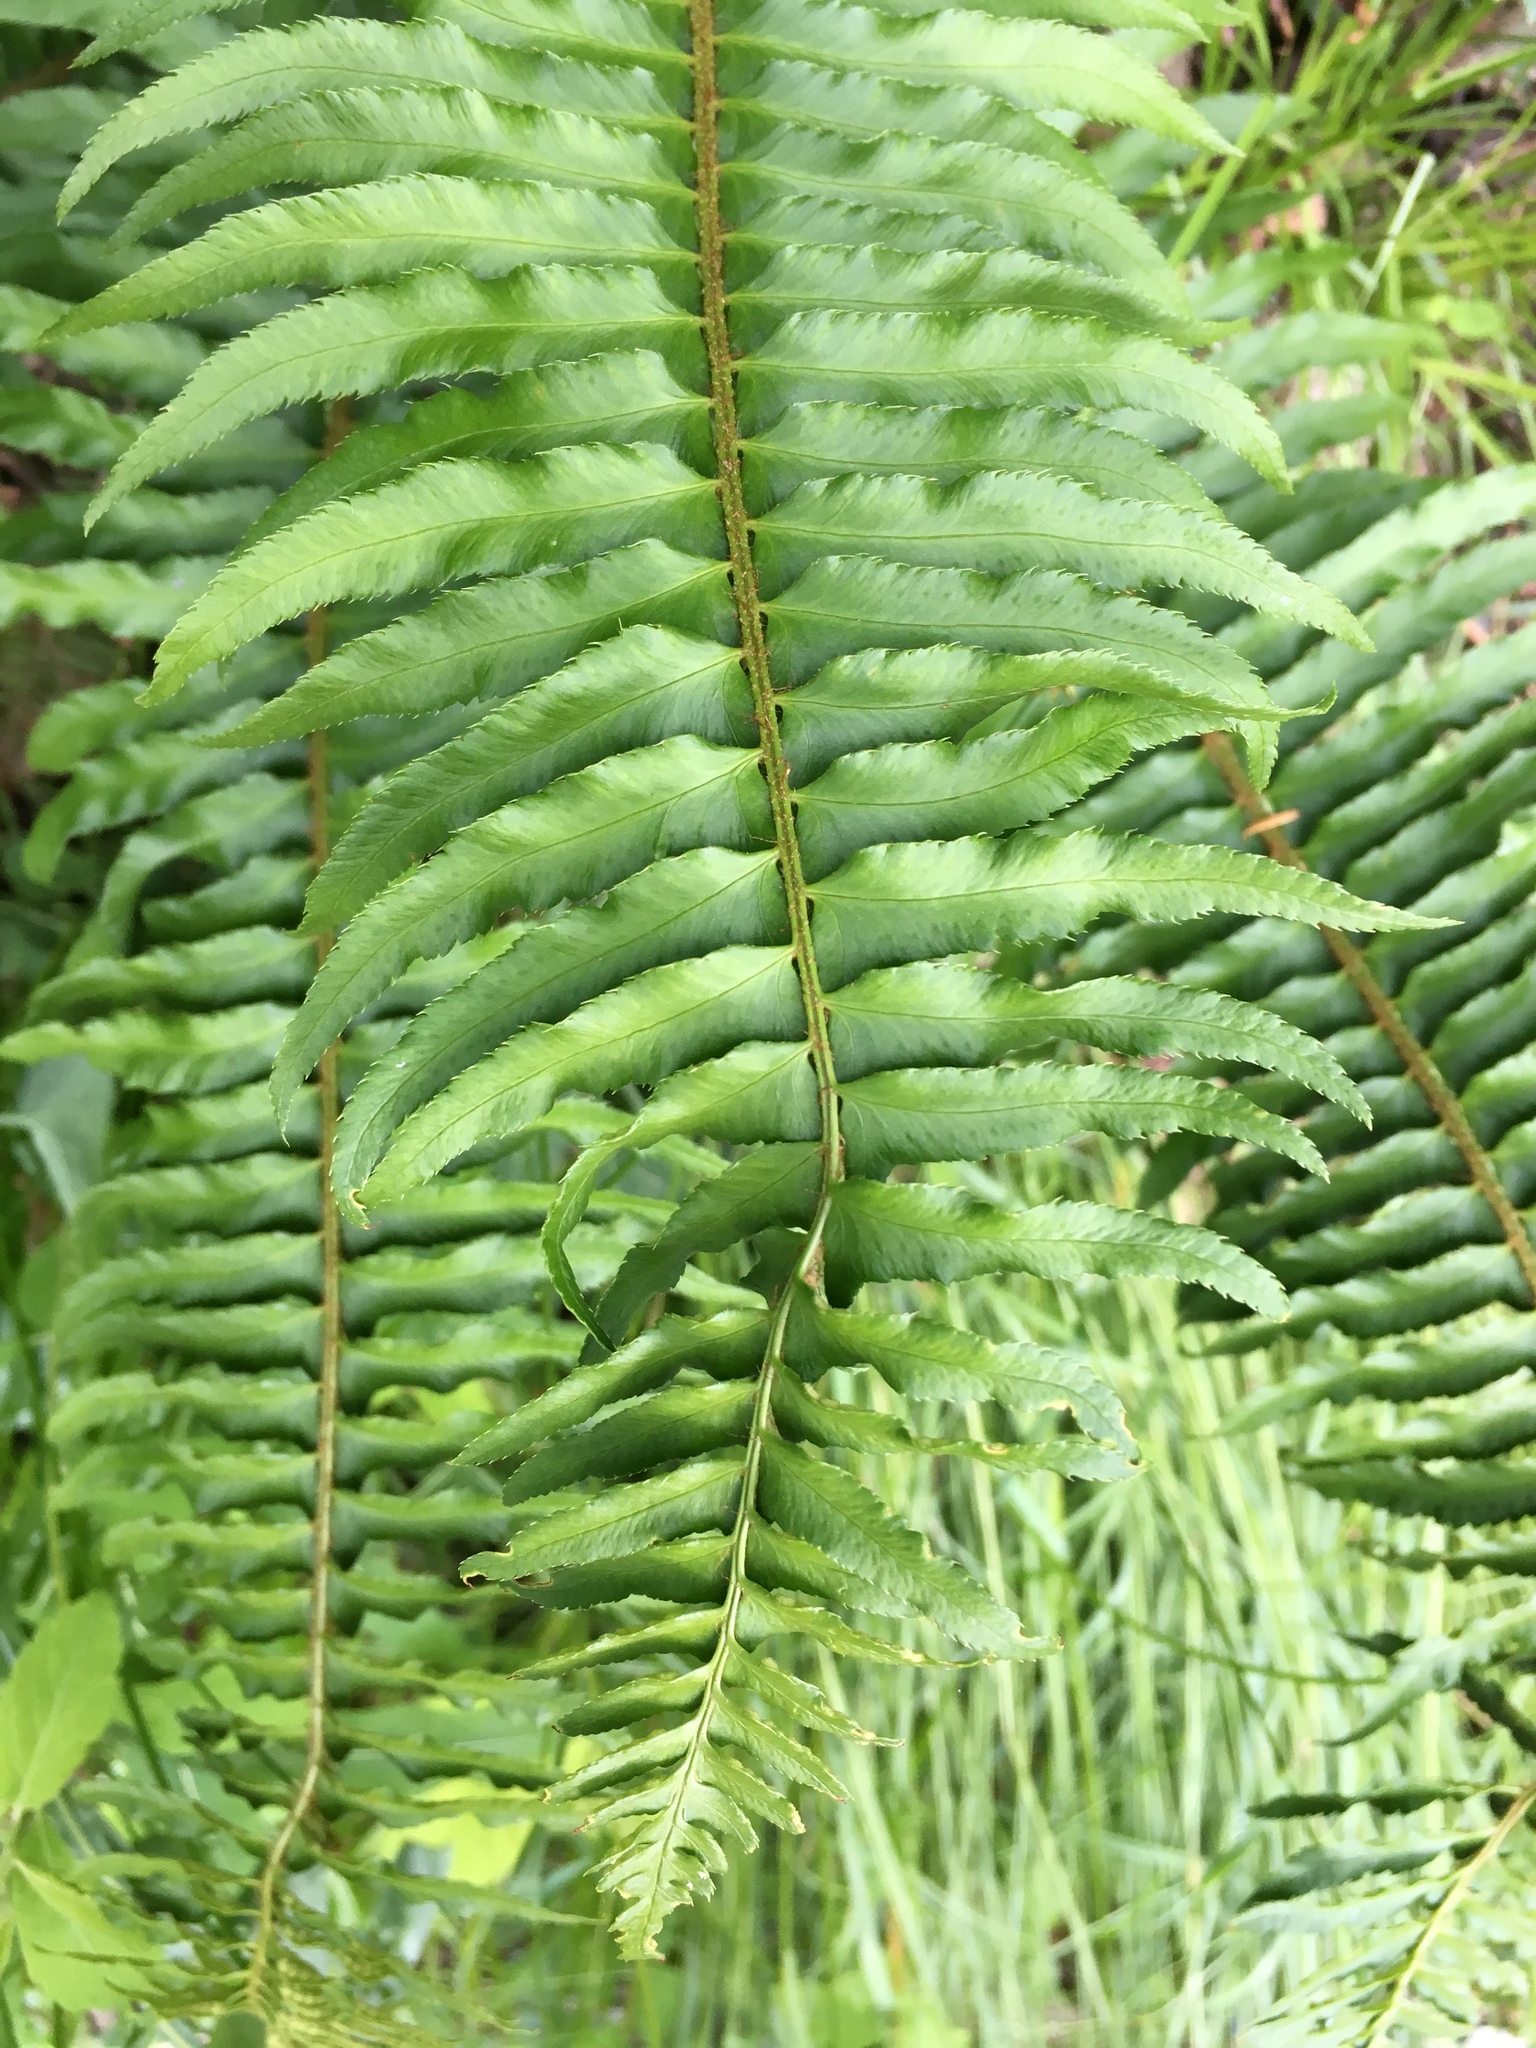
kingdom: Plantae
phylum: Tracheophyta
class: Polypodiopsida
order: Polypodiales
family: Dryopteridaceae
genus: Polystichum
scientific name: Polystichum munitum
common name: Western sword-fern
